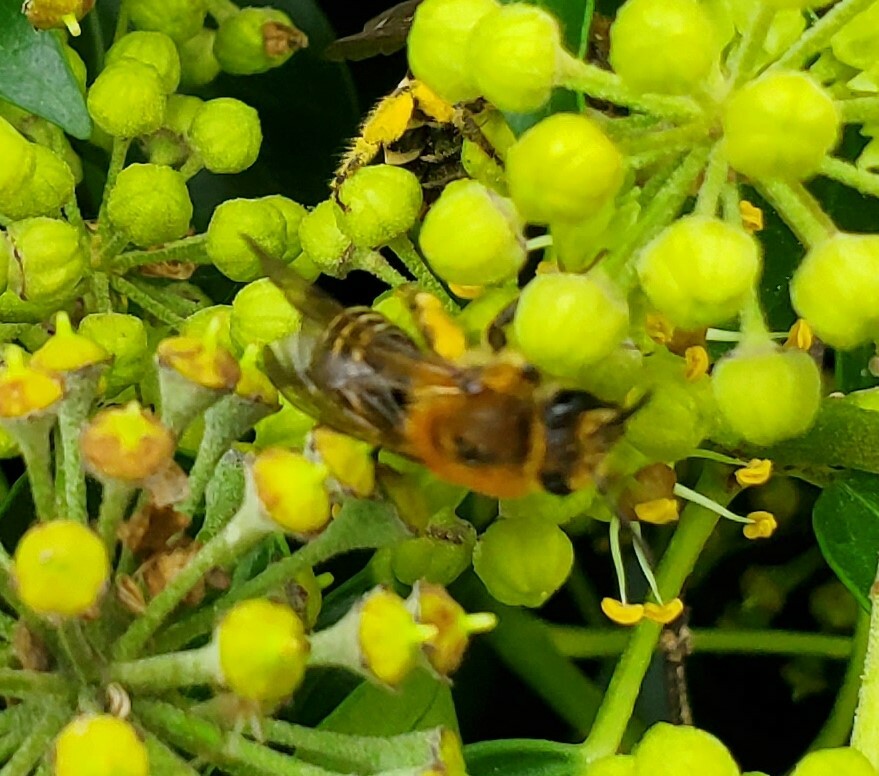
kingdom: Animalia
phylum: Arthropoda
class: Insecta
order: Hymenoptera
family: Colletidae
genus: Colletes
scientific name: Colletes hederae
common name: Ivy bee
